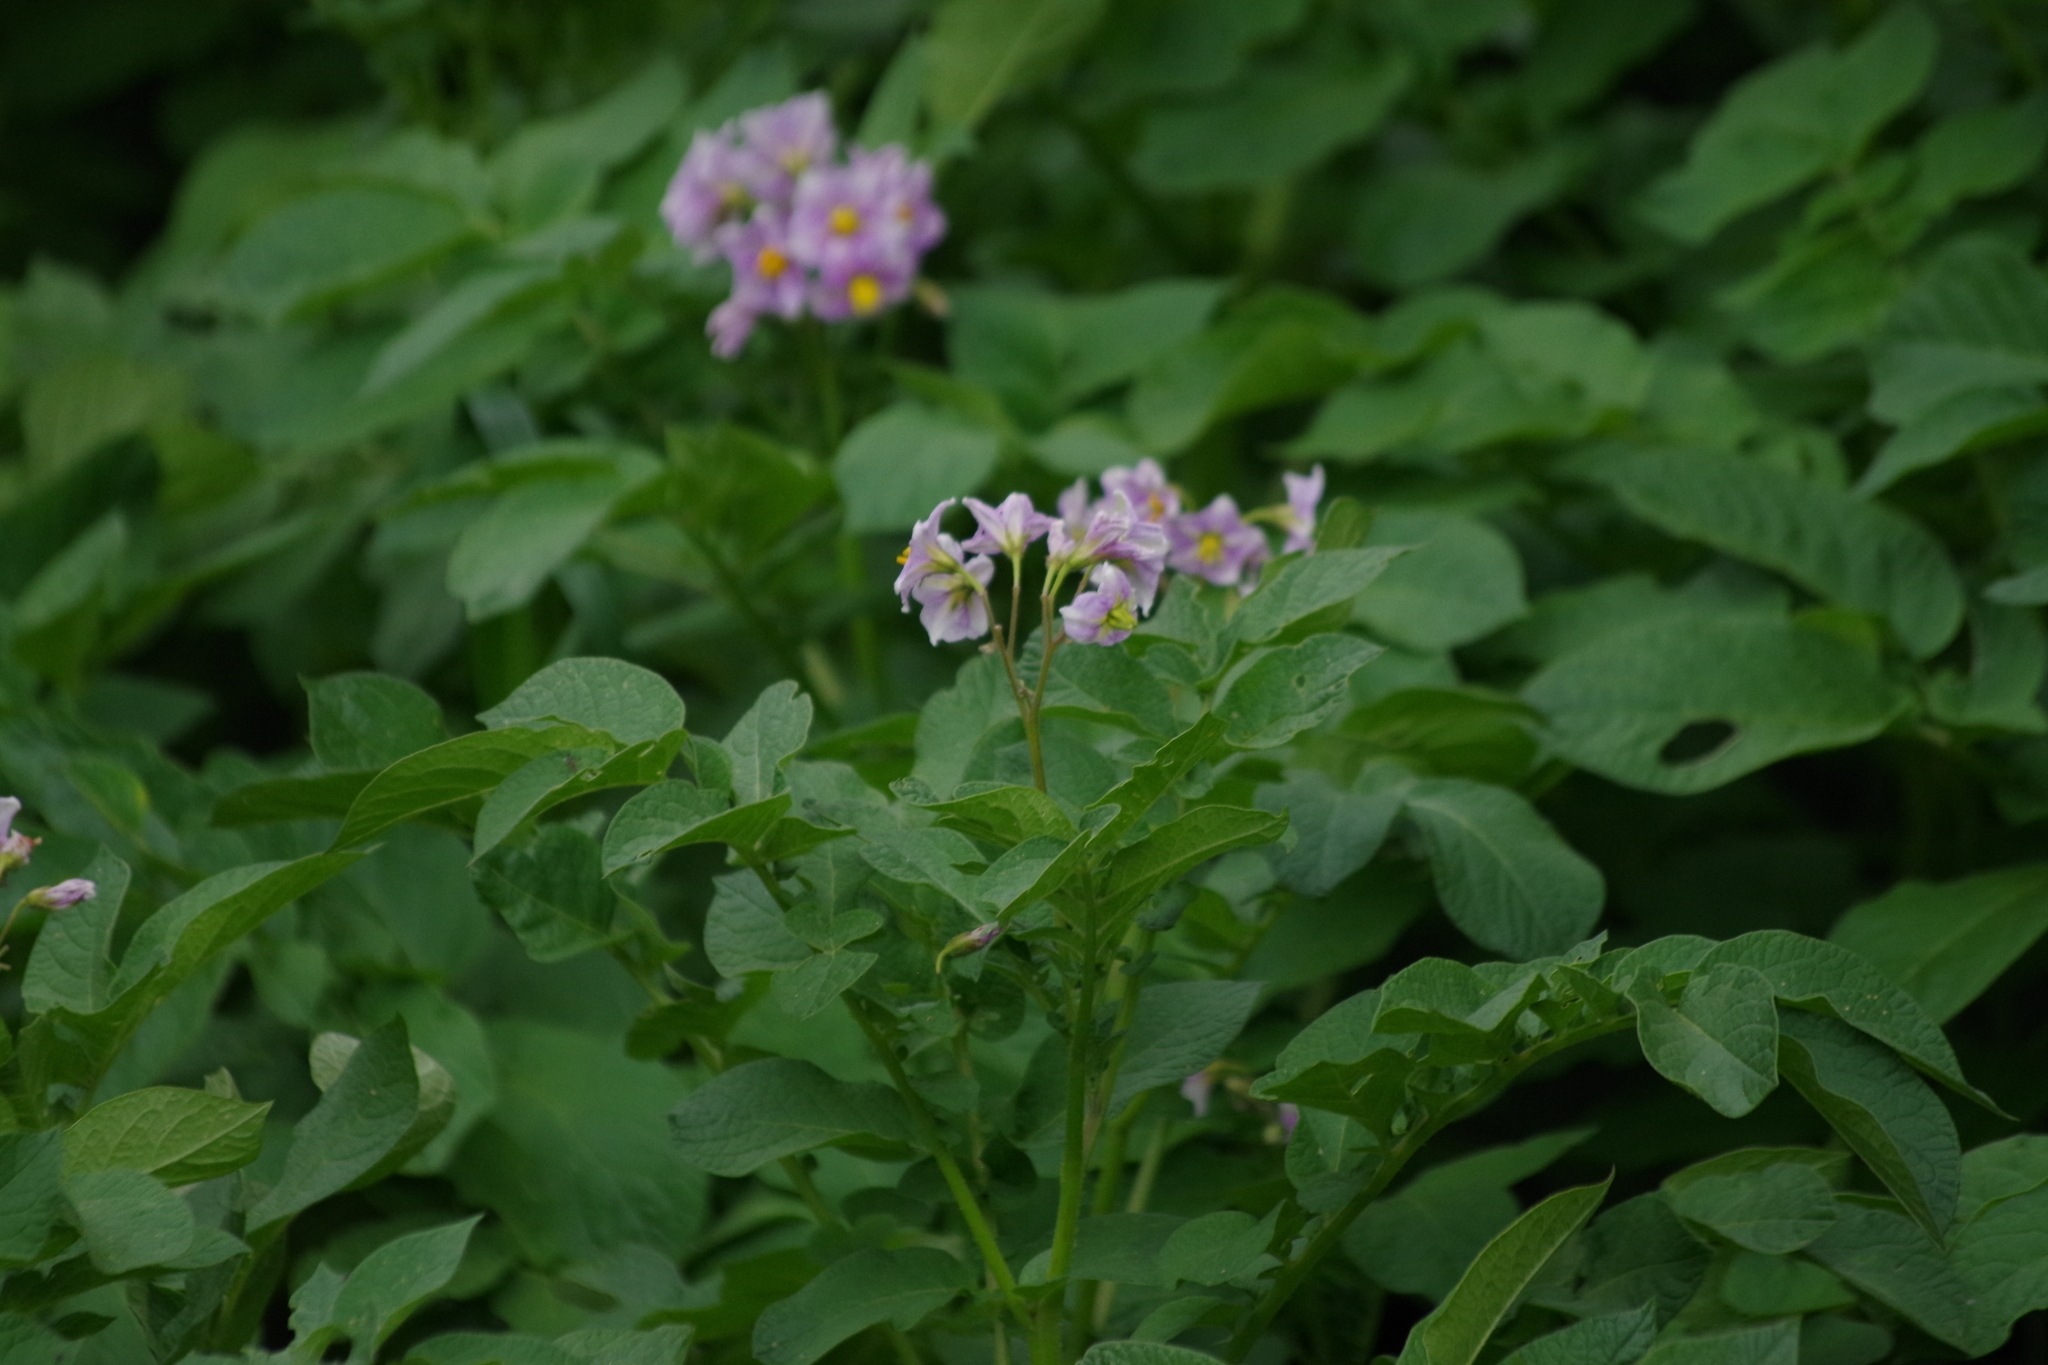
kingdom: Plantae
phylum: Tracheophyta
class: Magnoliopsida
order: Solanales
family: Solanaceae
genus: Solanum
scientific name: Solanum tuberosum
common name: Potato
